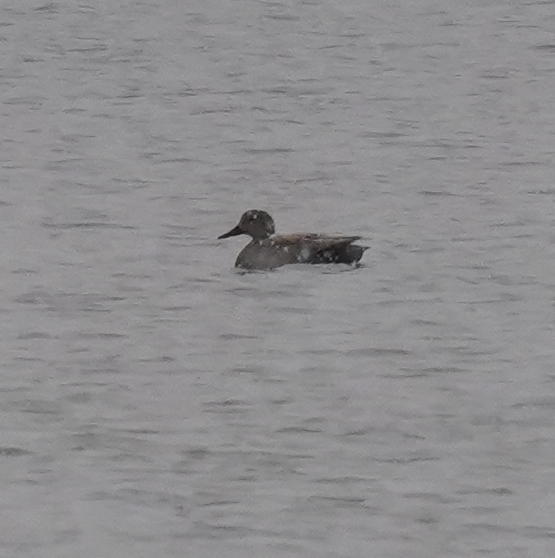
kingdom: Animalia
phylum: Chordata
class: Aves
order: Anseriformes
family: Anatidae
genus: Mareca
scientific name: Mareca strepera
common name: Gadwall
